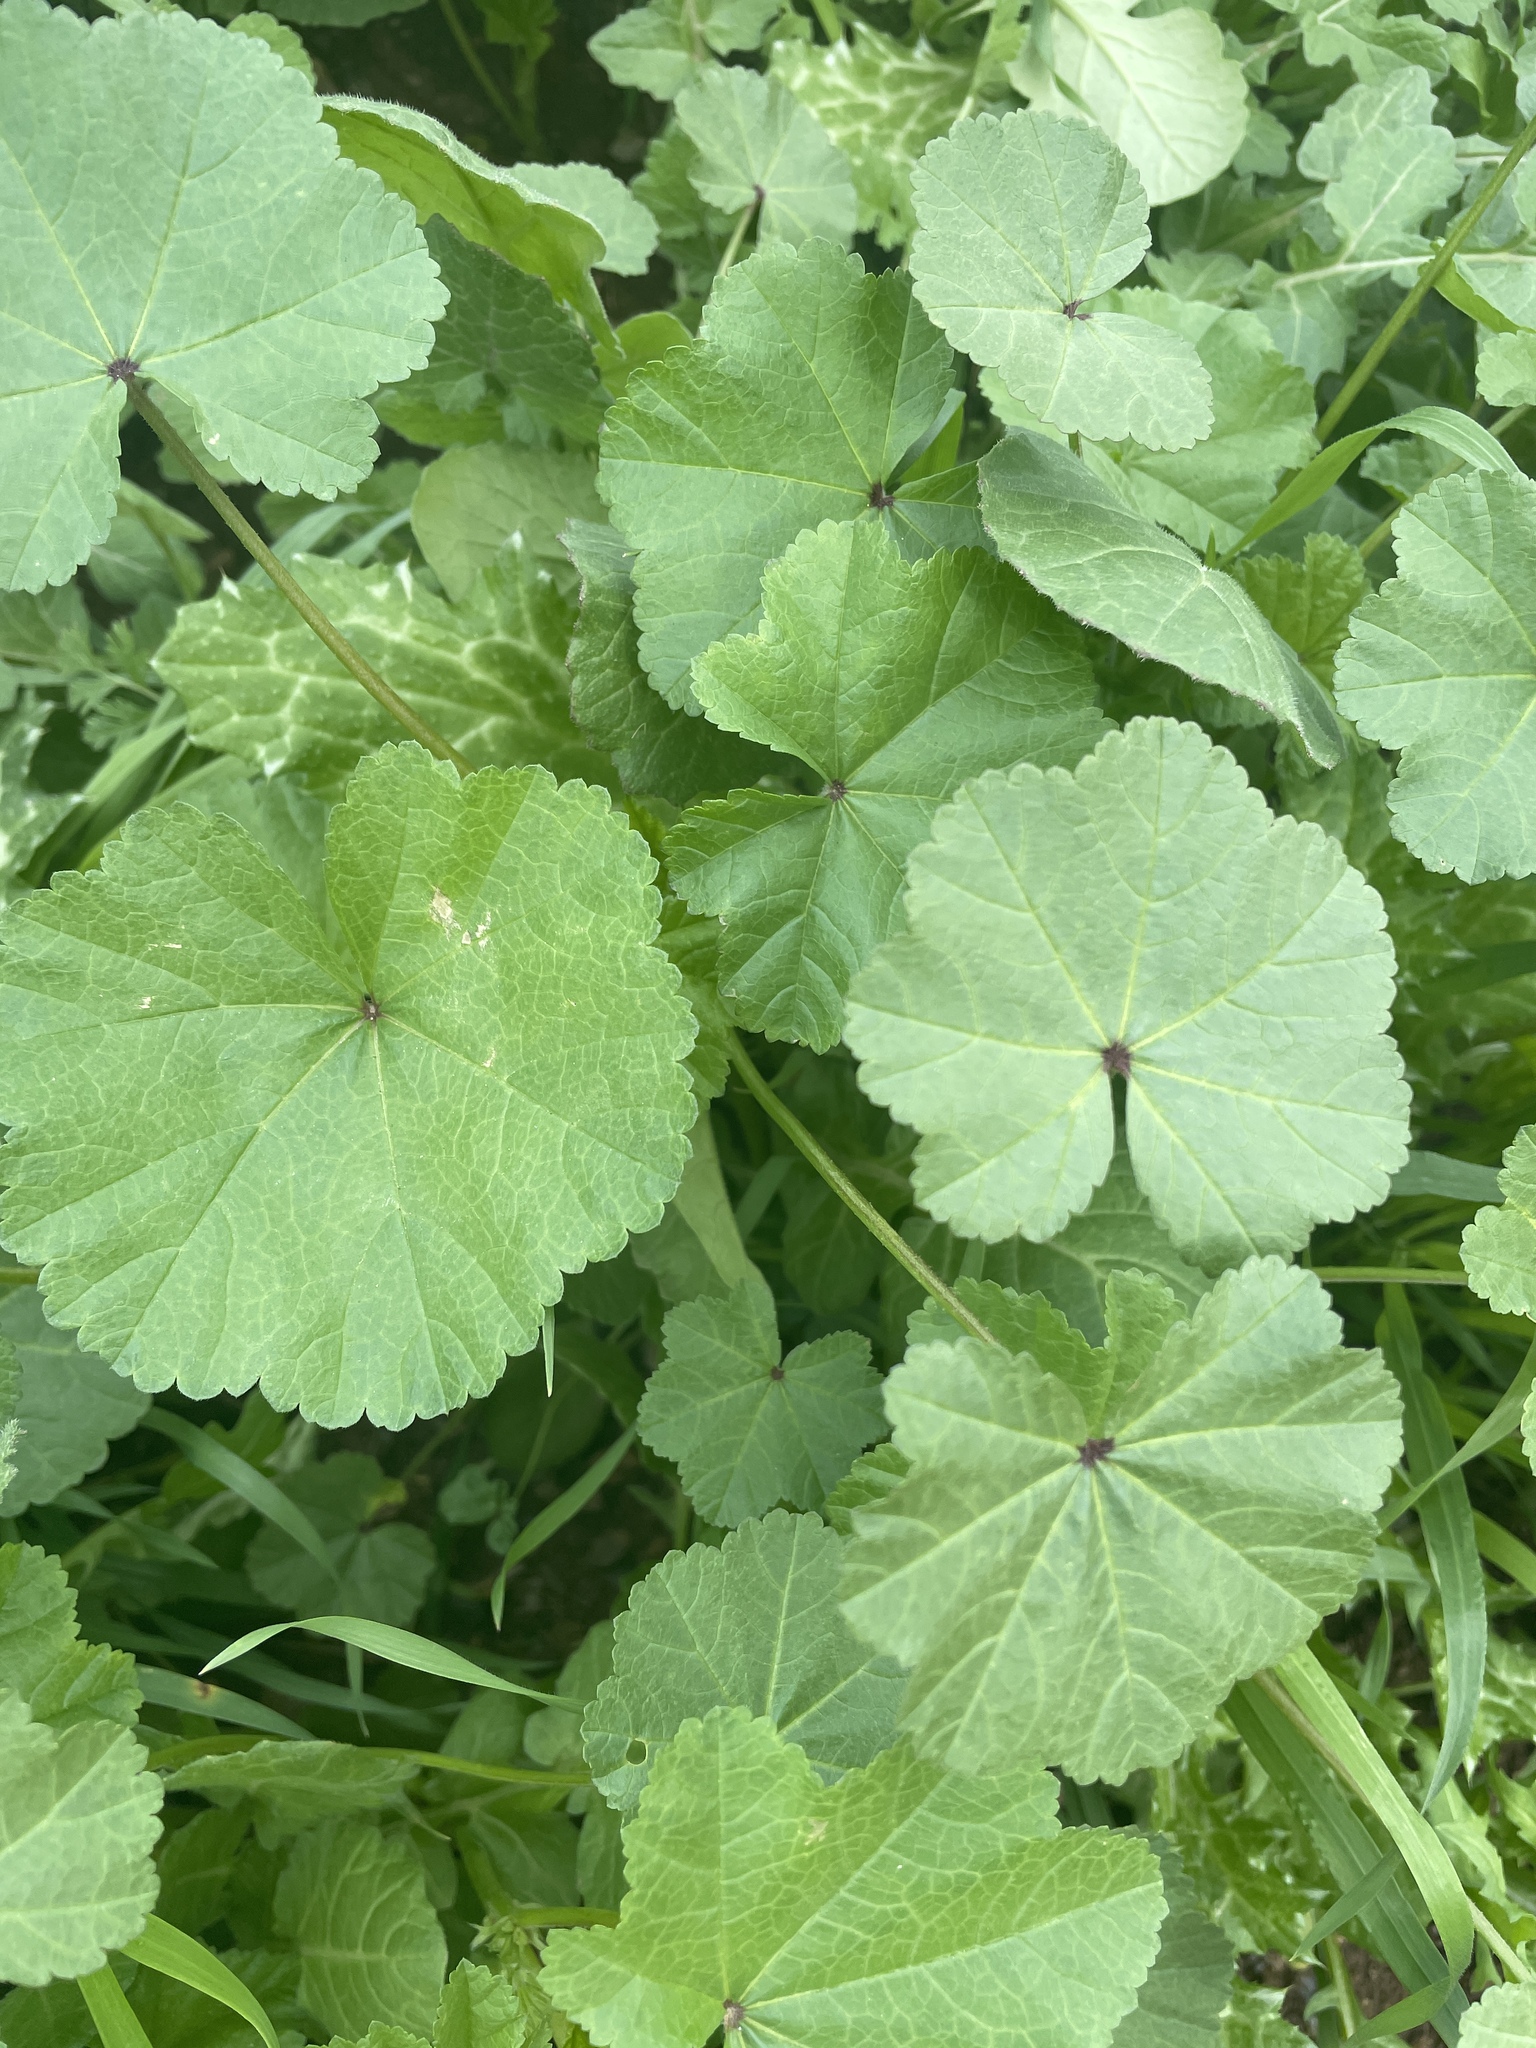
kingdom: Plantae
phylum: Tracheophyta
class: Magnoliopsida
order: Malvales
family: Malvaceae
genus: Malva
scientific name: Malva
